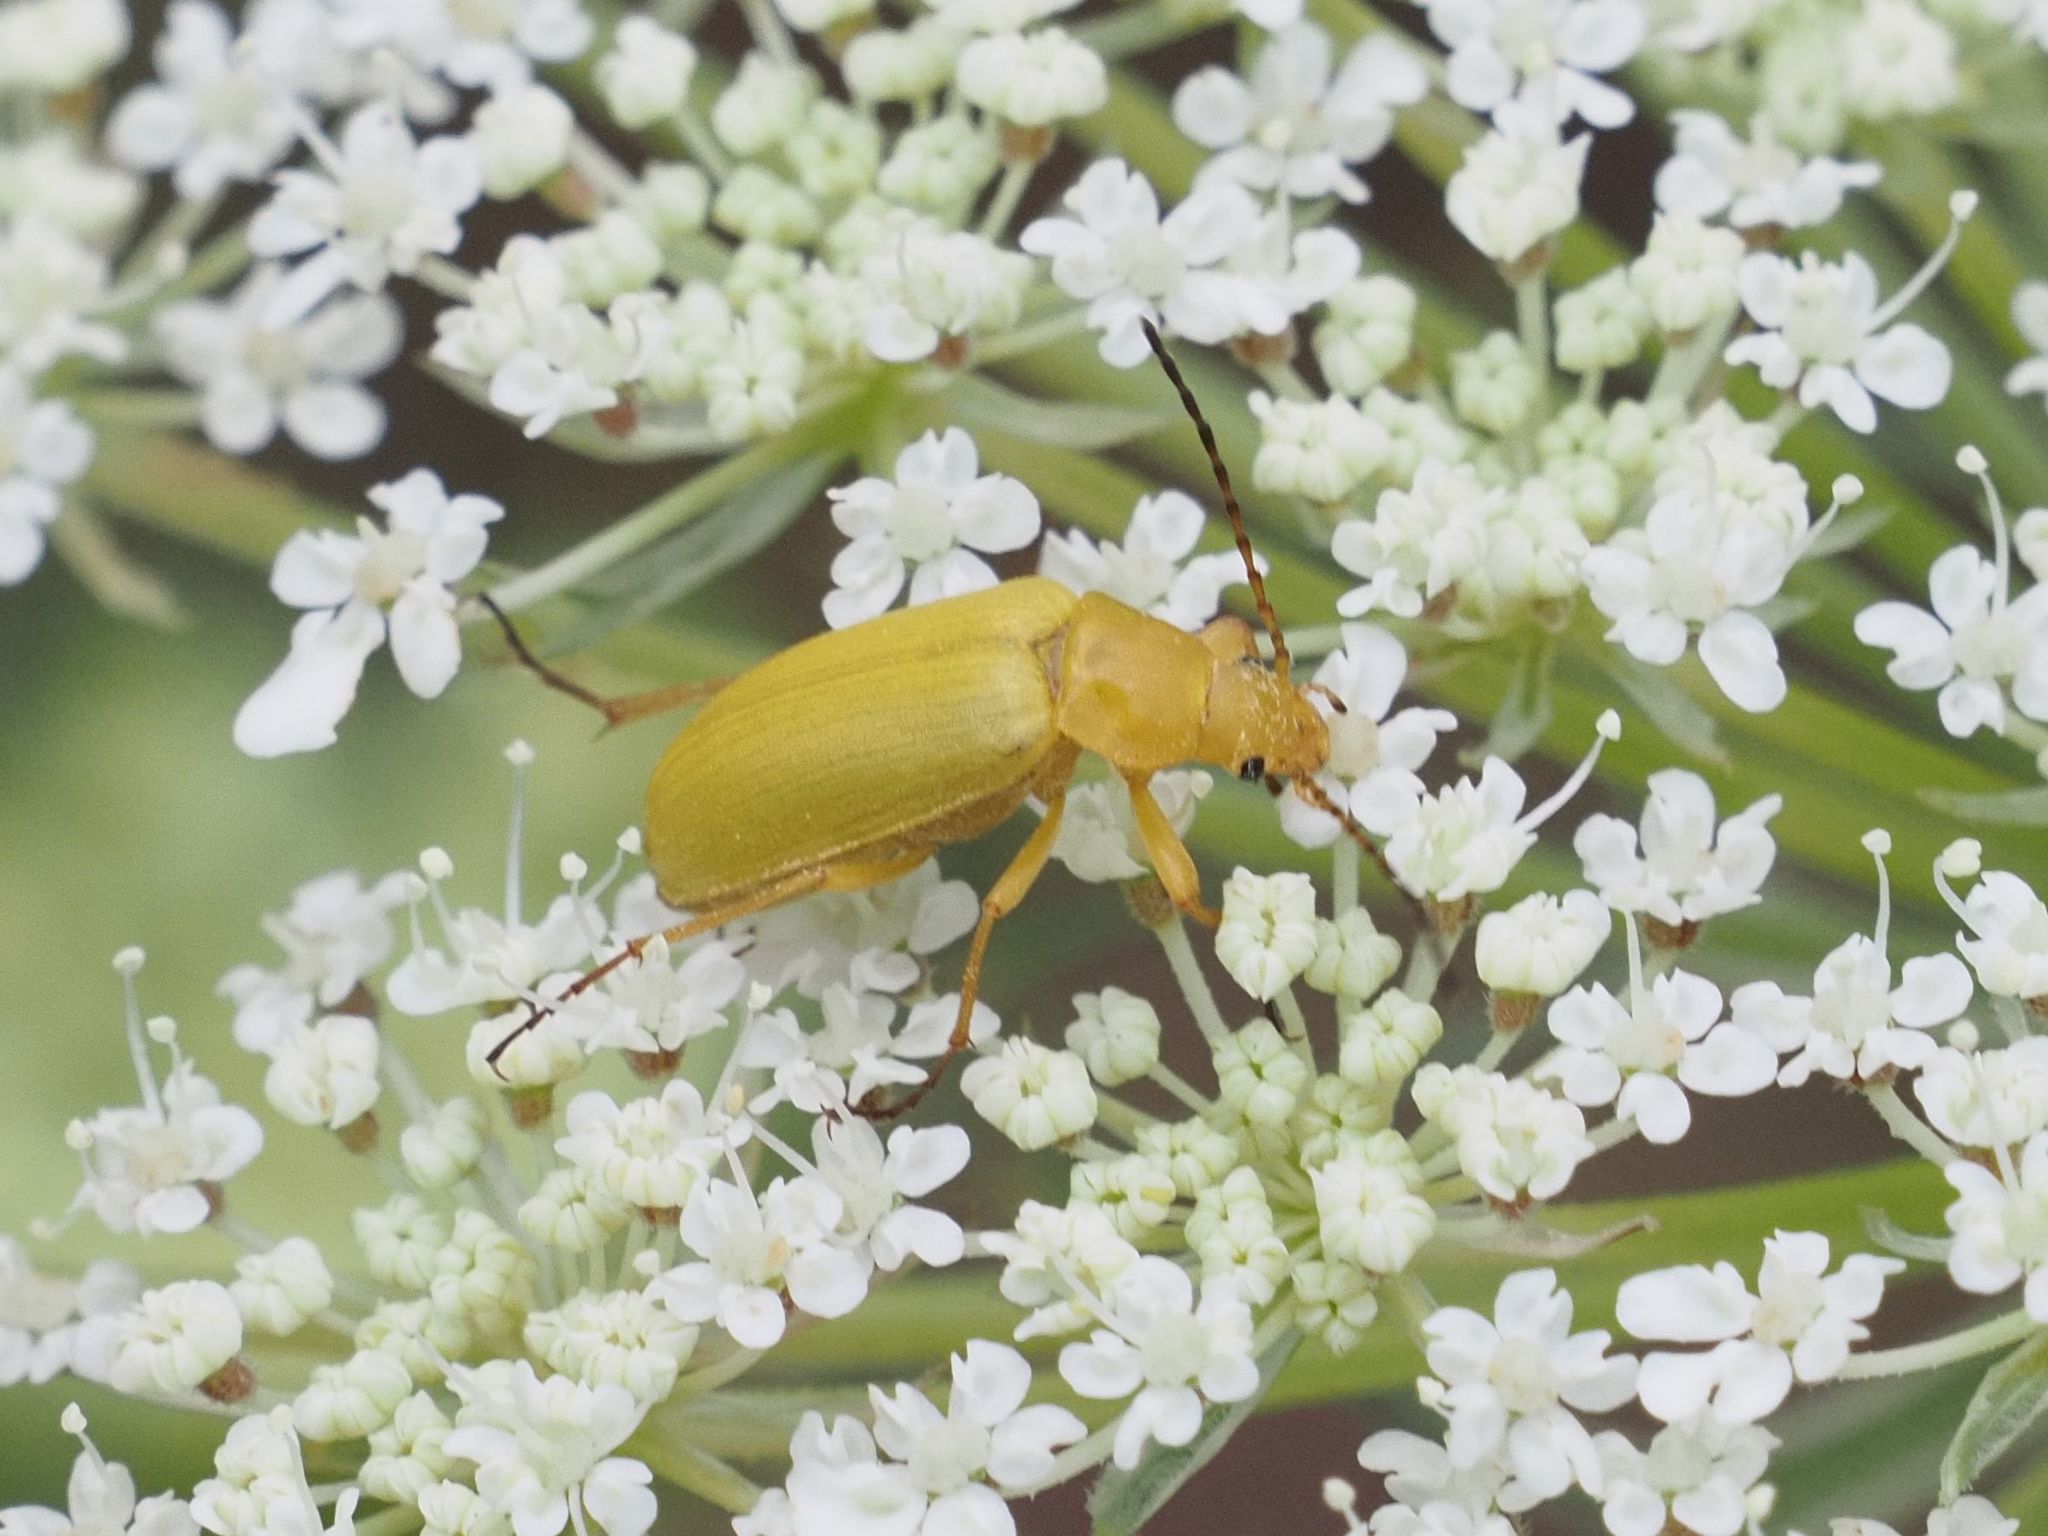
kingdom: Animalia
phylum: Arthropoda
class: Insecta
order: Coleoptera
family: Tenebrionidae
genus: Cteniopus
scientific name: Cteniopus sulphureus
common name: Sulphur beetle
